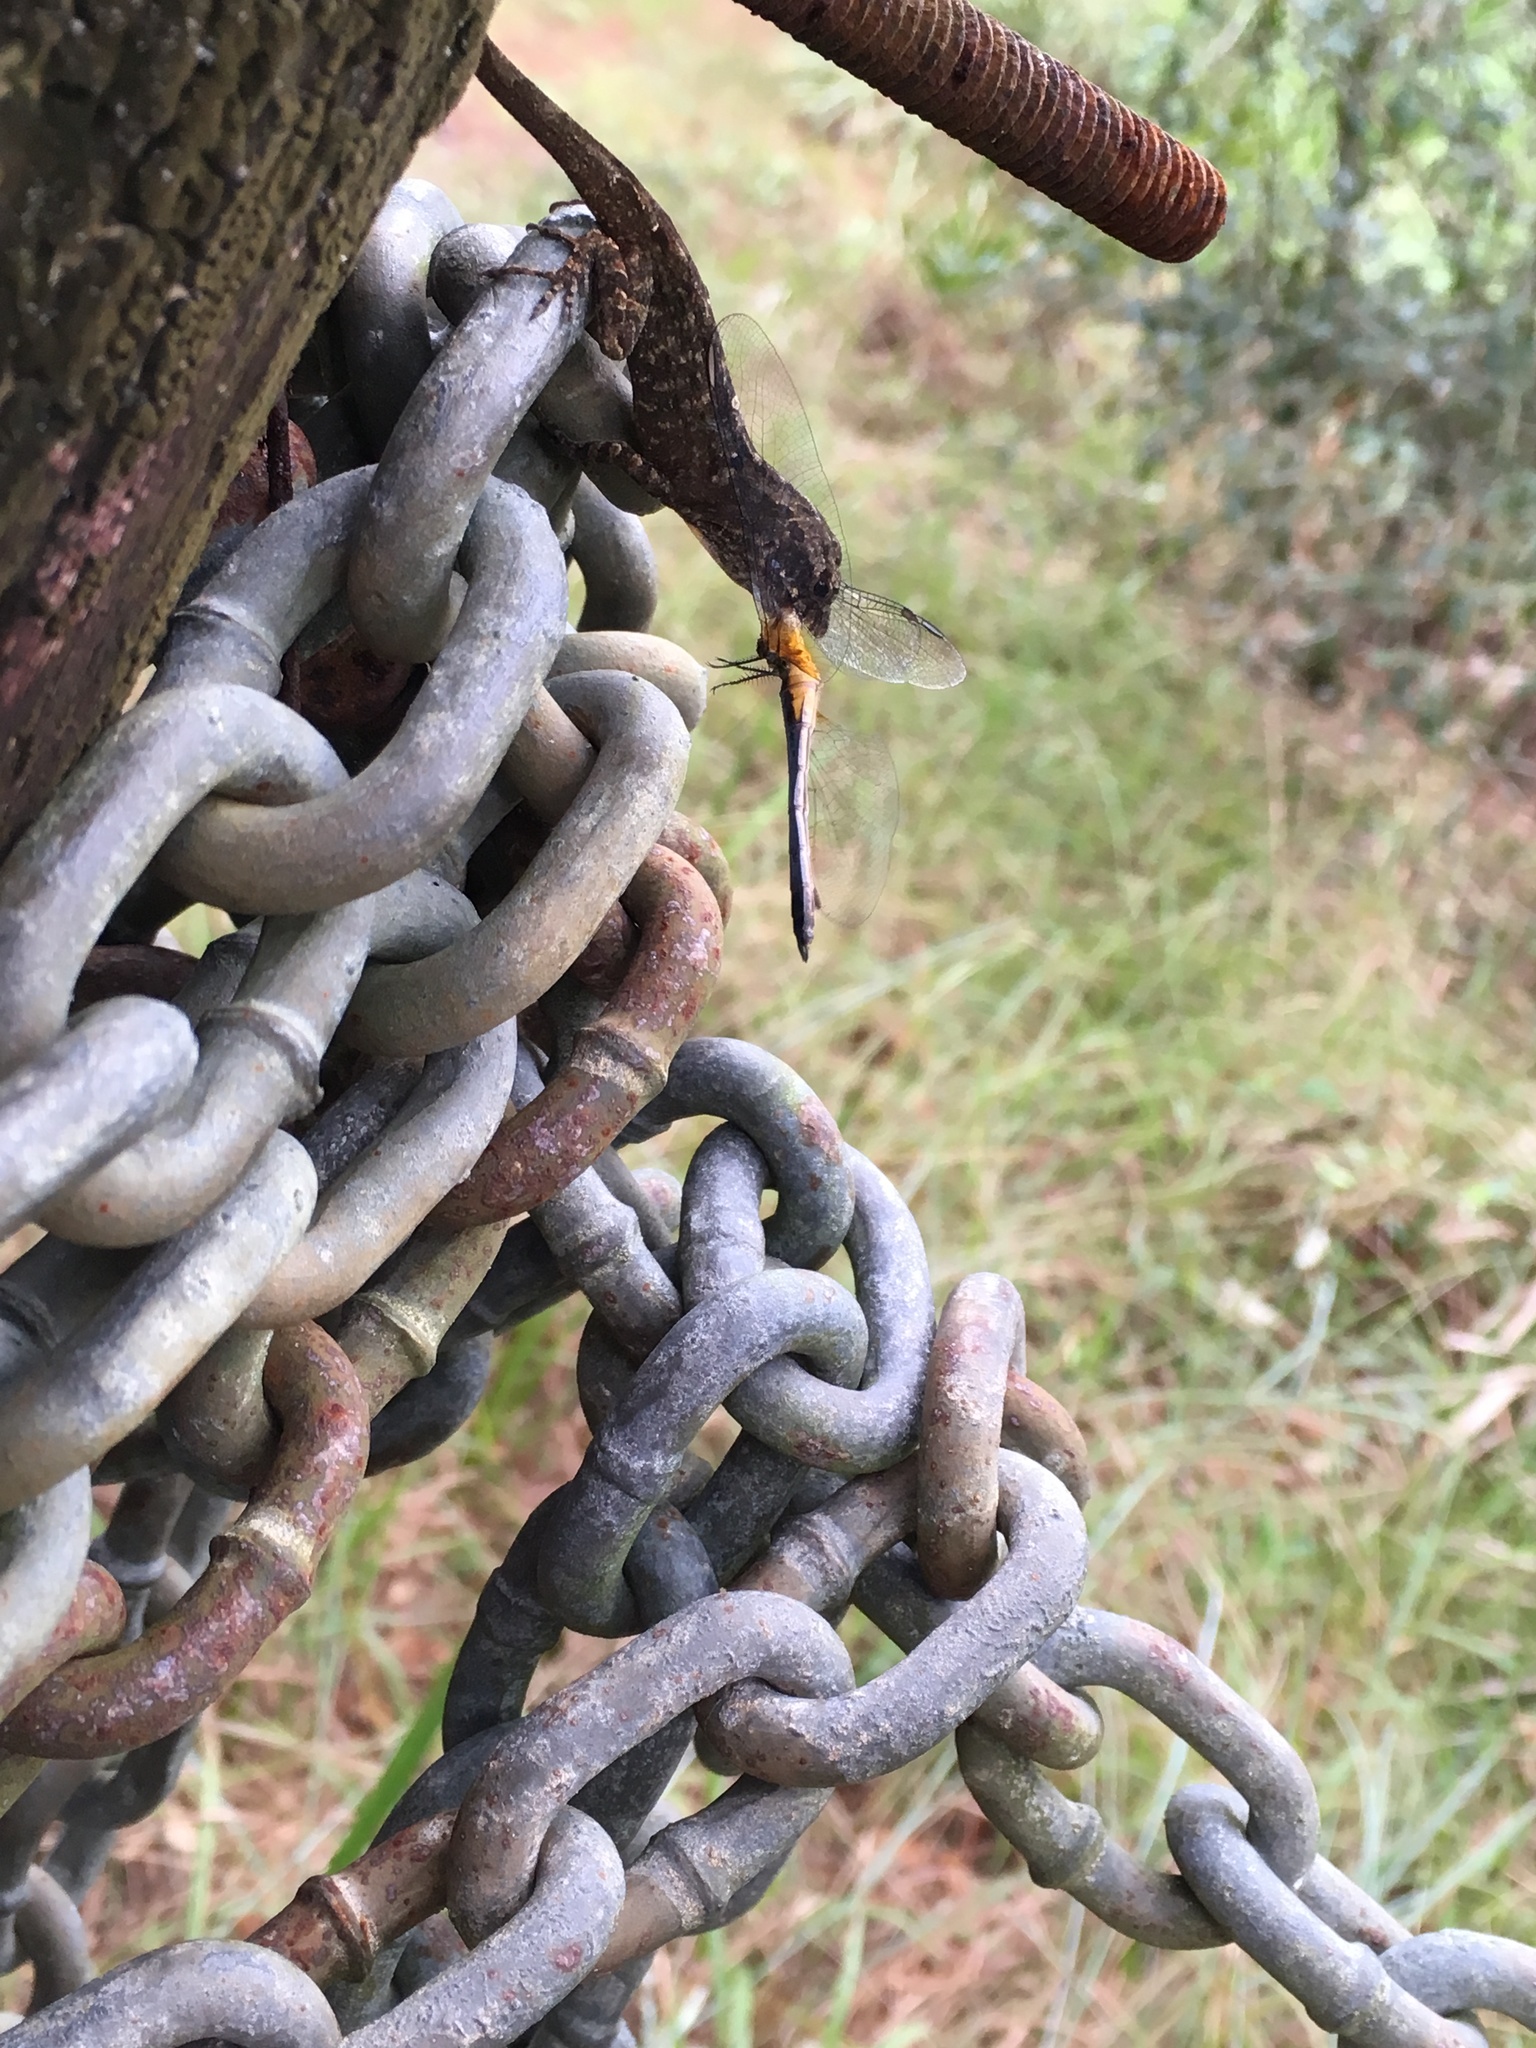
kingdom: Animalia
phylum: Chordata
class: Squamata
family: Dactyloidae
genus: Anolis
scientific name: Anolis sagrei
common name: Brown anole
